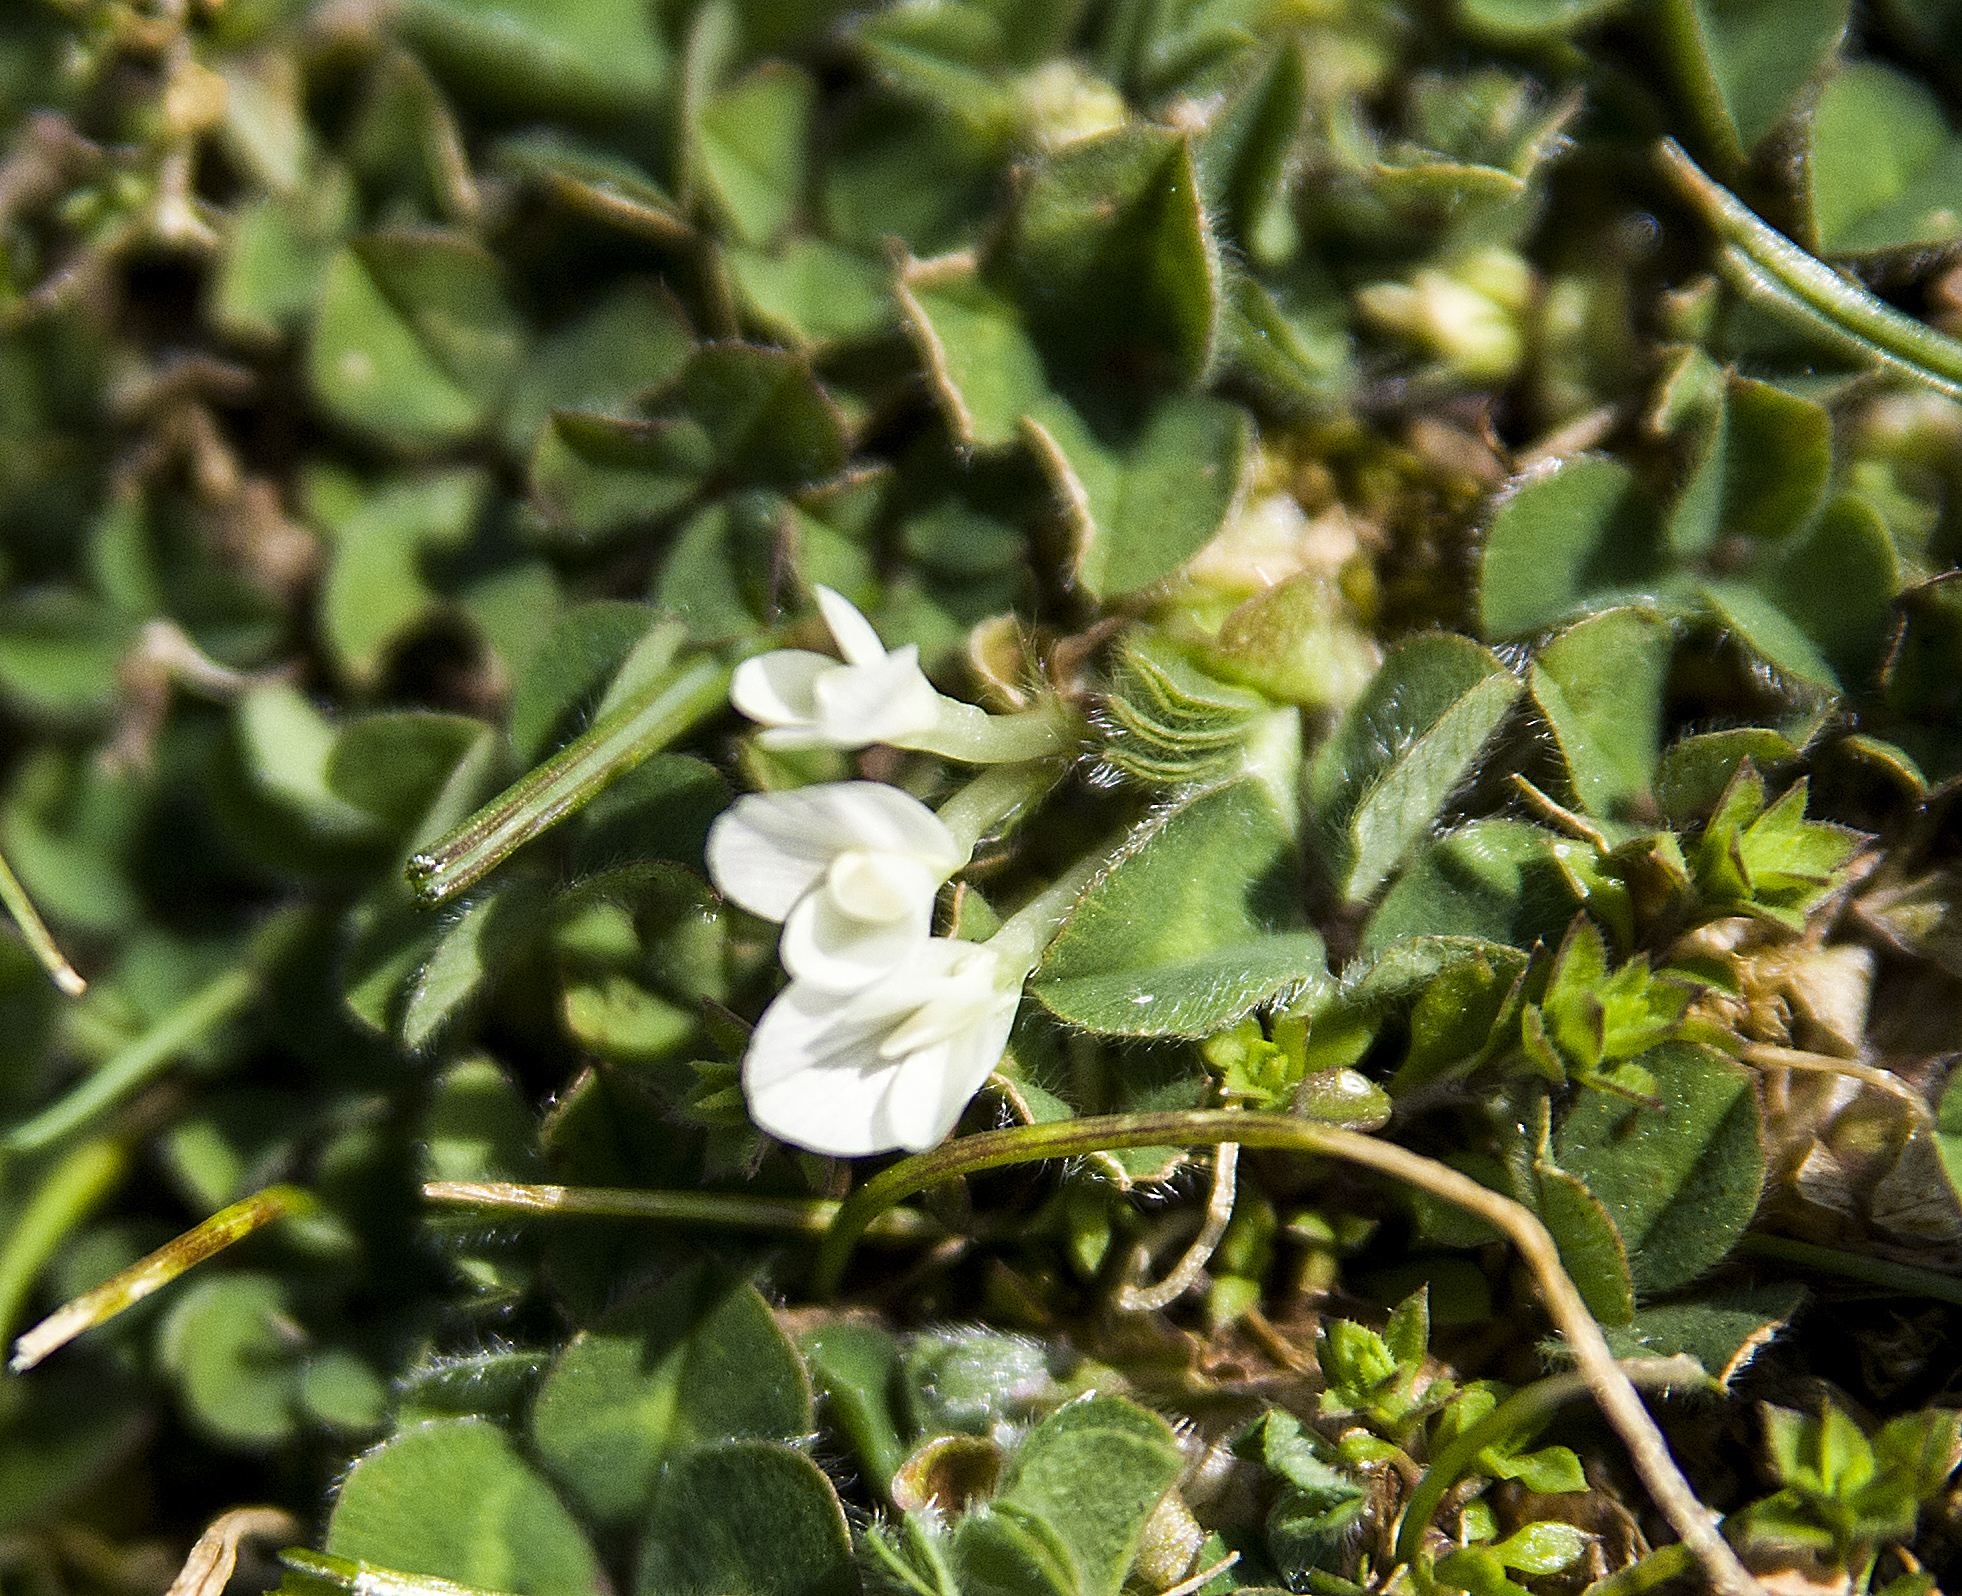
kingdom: Plantae
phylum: Tracheophyta
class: Magnoliopsida
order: Fabales
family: Fabaceae
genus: Trifolium
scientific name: Trifolium subterraneum
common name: Subterranean clover
